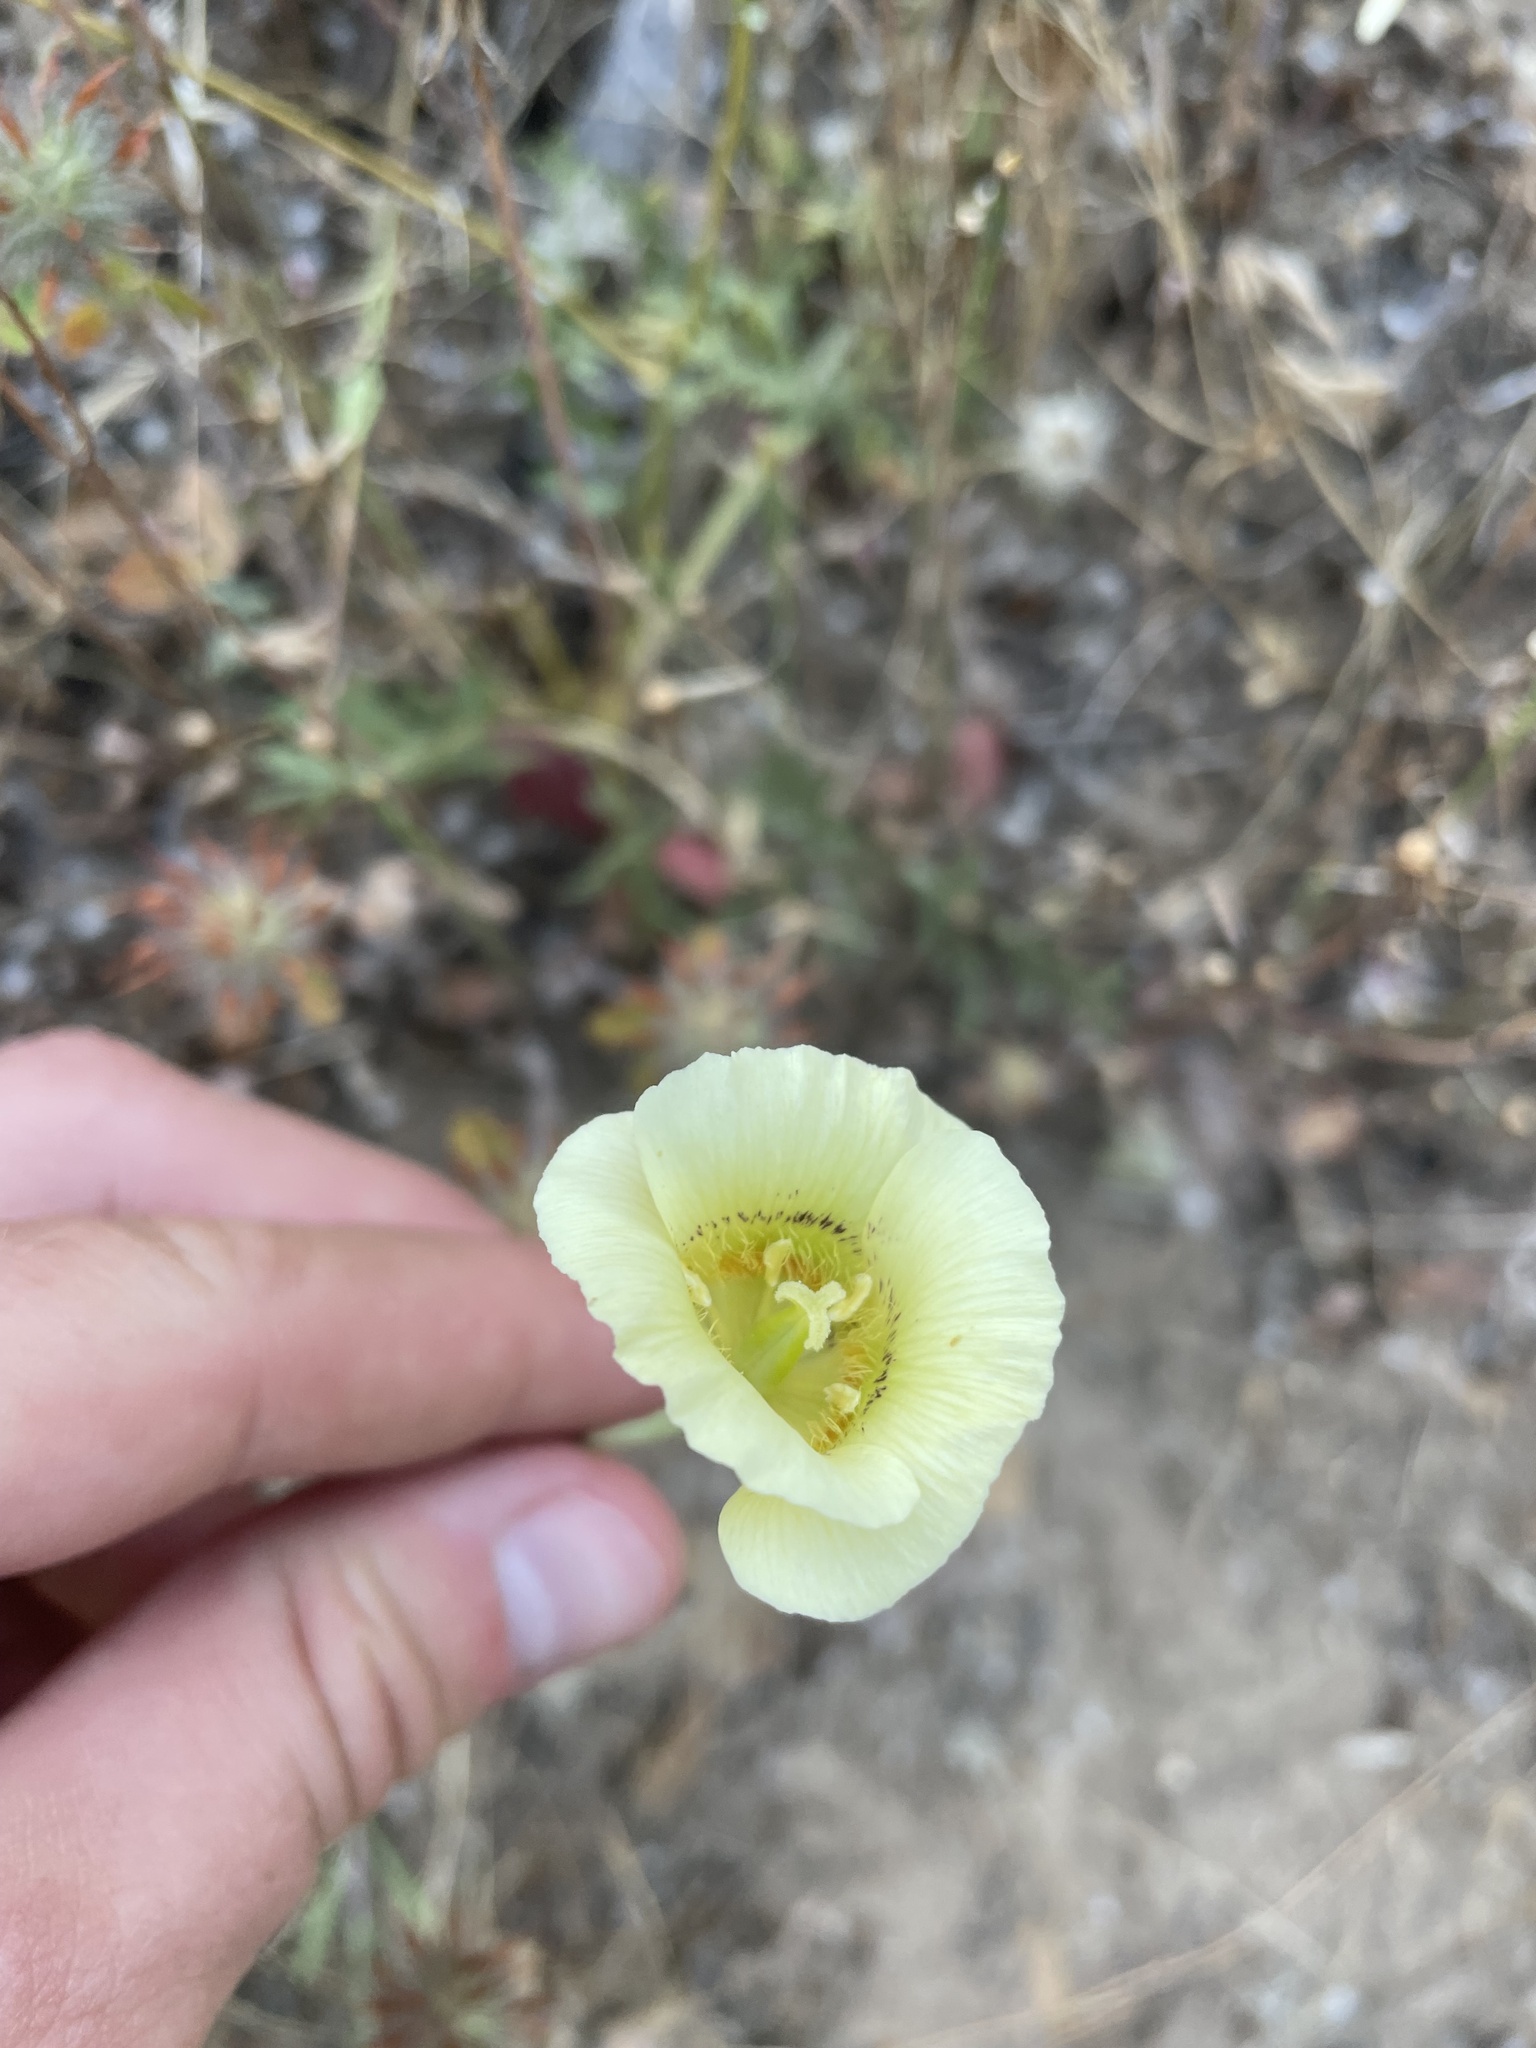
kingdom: Plantae
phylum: Tracheophyta
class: Liliopsida
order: Liliales
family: Liliaceae
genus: Calochortus
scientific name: Calochortus luteus
